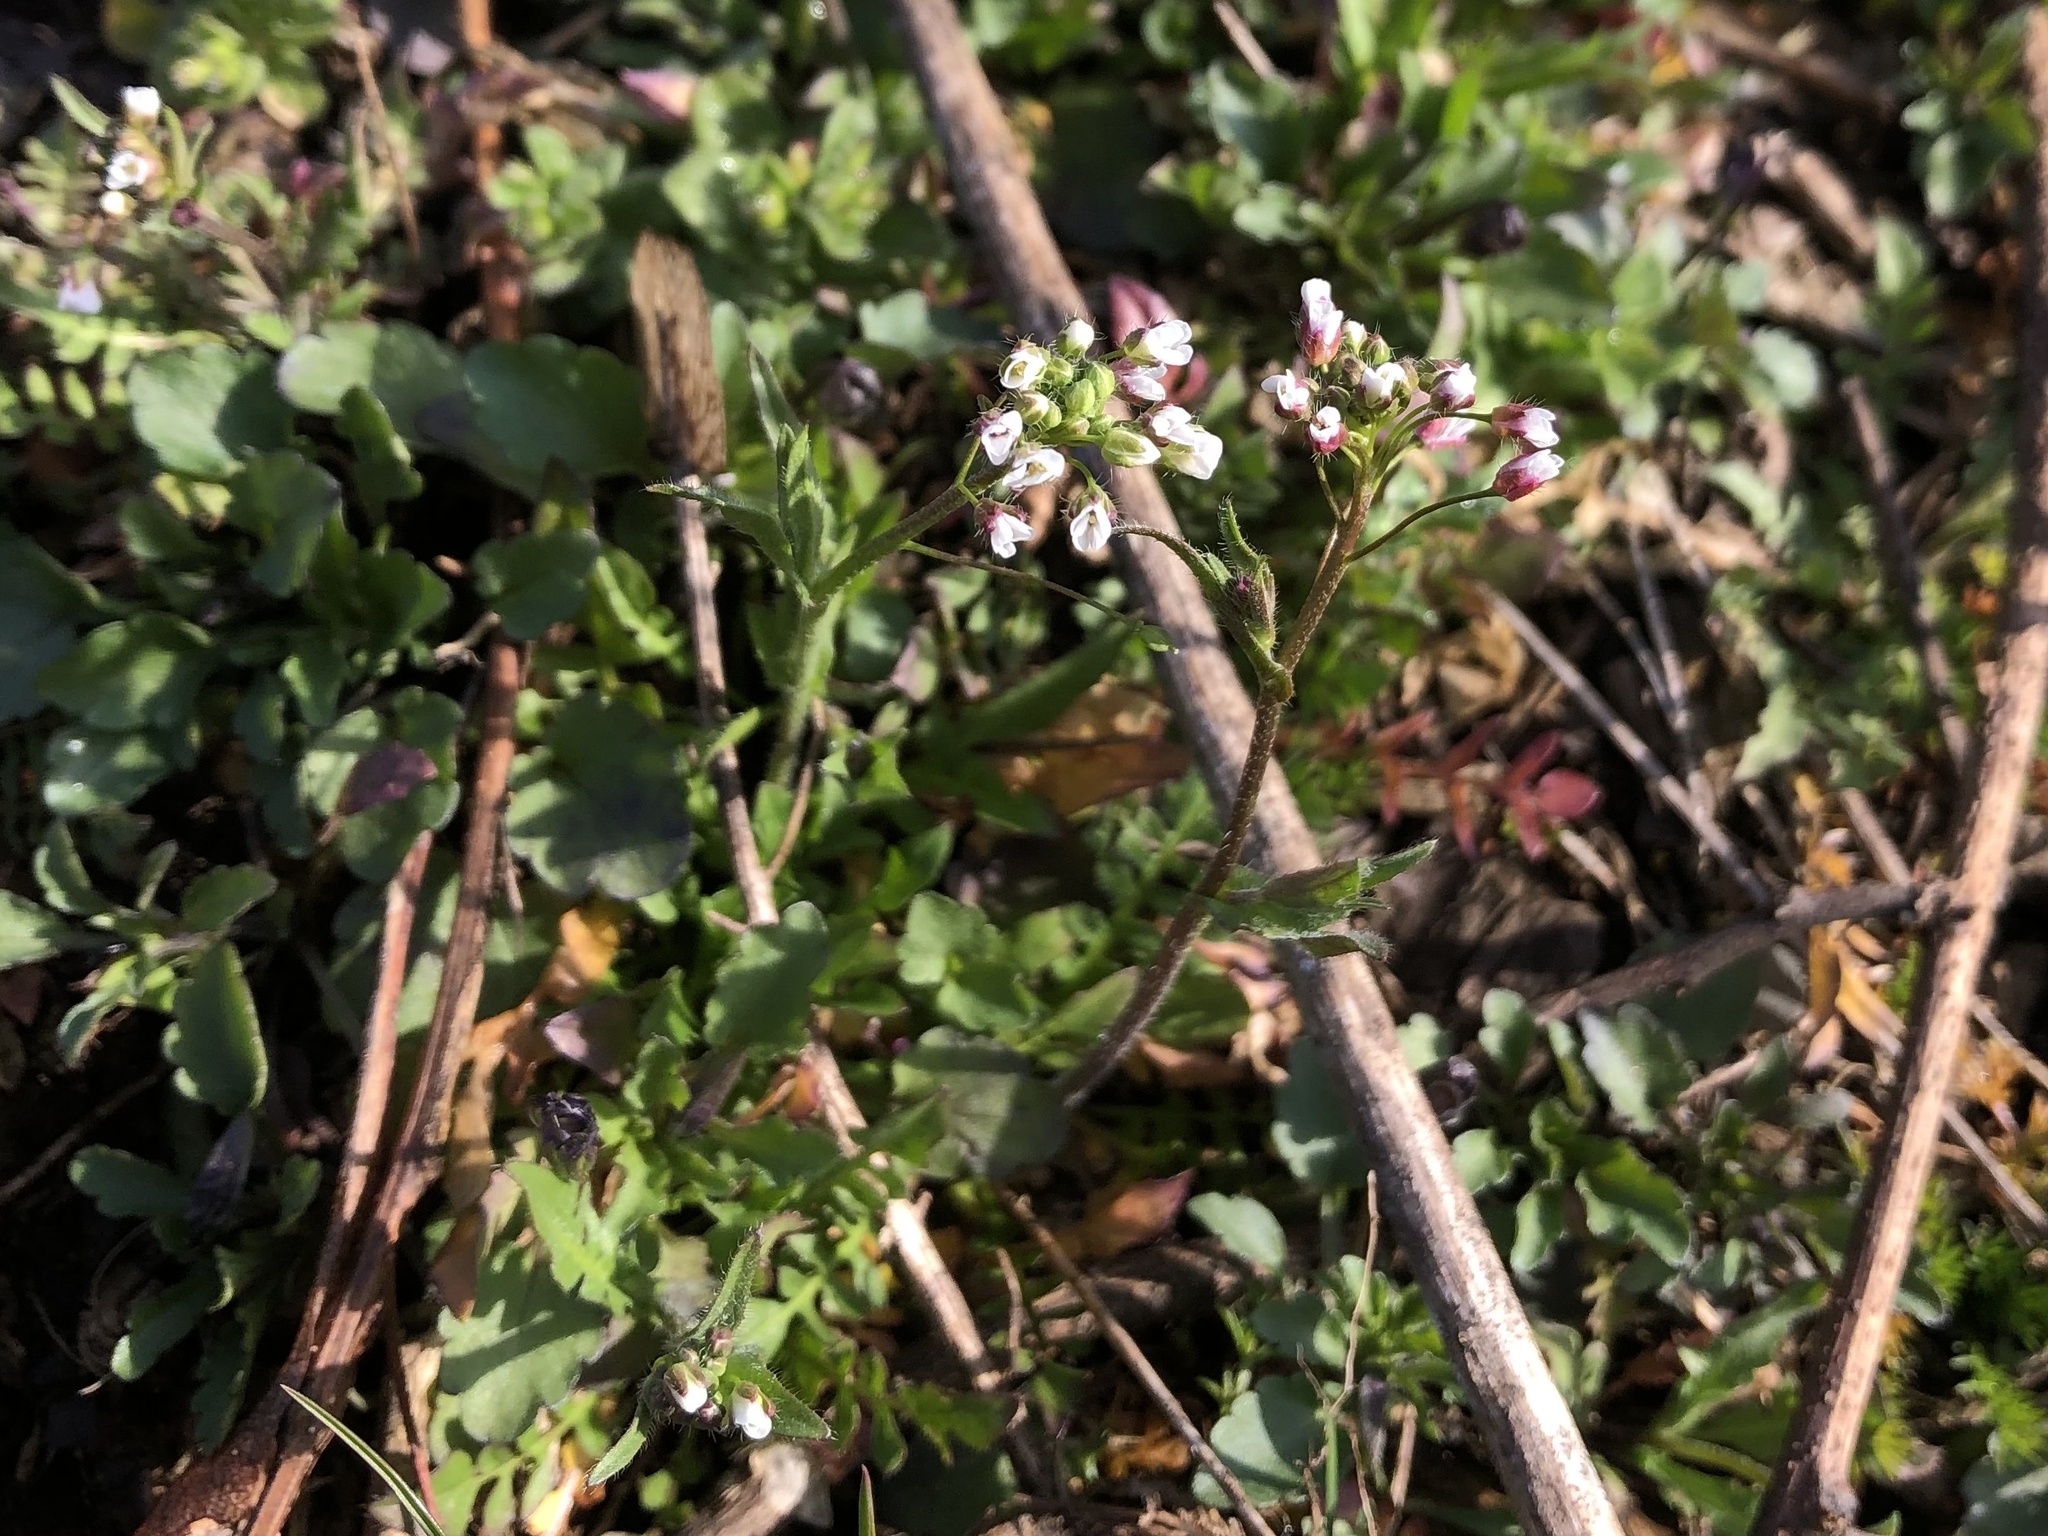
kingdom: Plantae
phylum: Tracheophyta
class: Magnoliopsida
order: Brassicales
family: Brassicaceae
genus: Capsella
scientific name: Capsella bursa-pastoris
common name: Shepherd's purse
